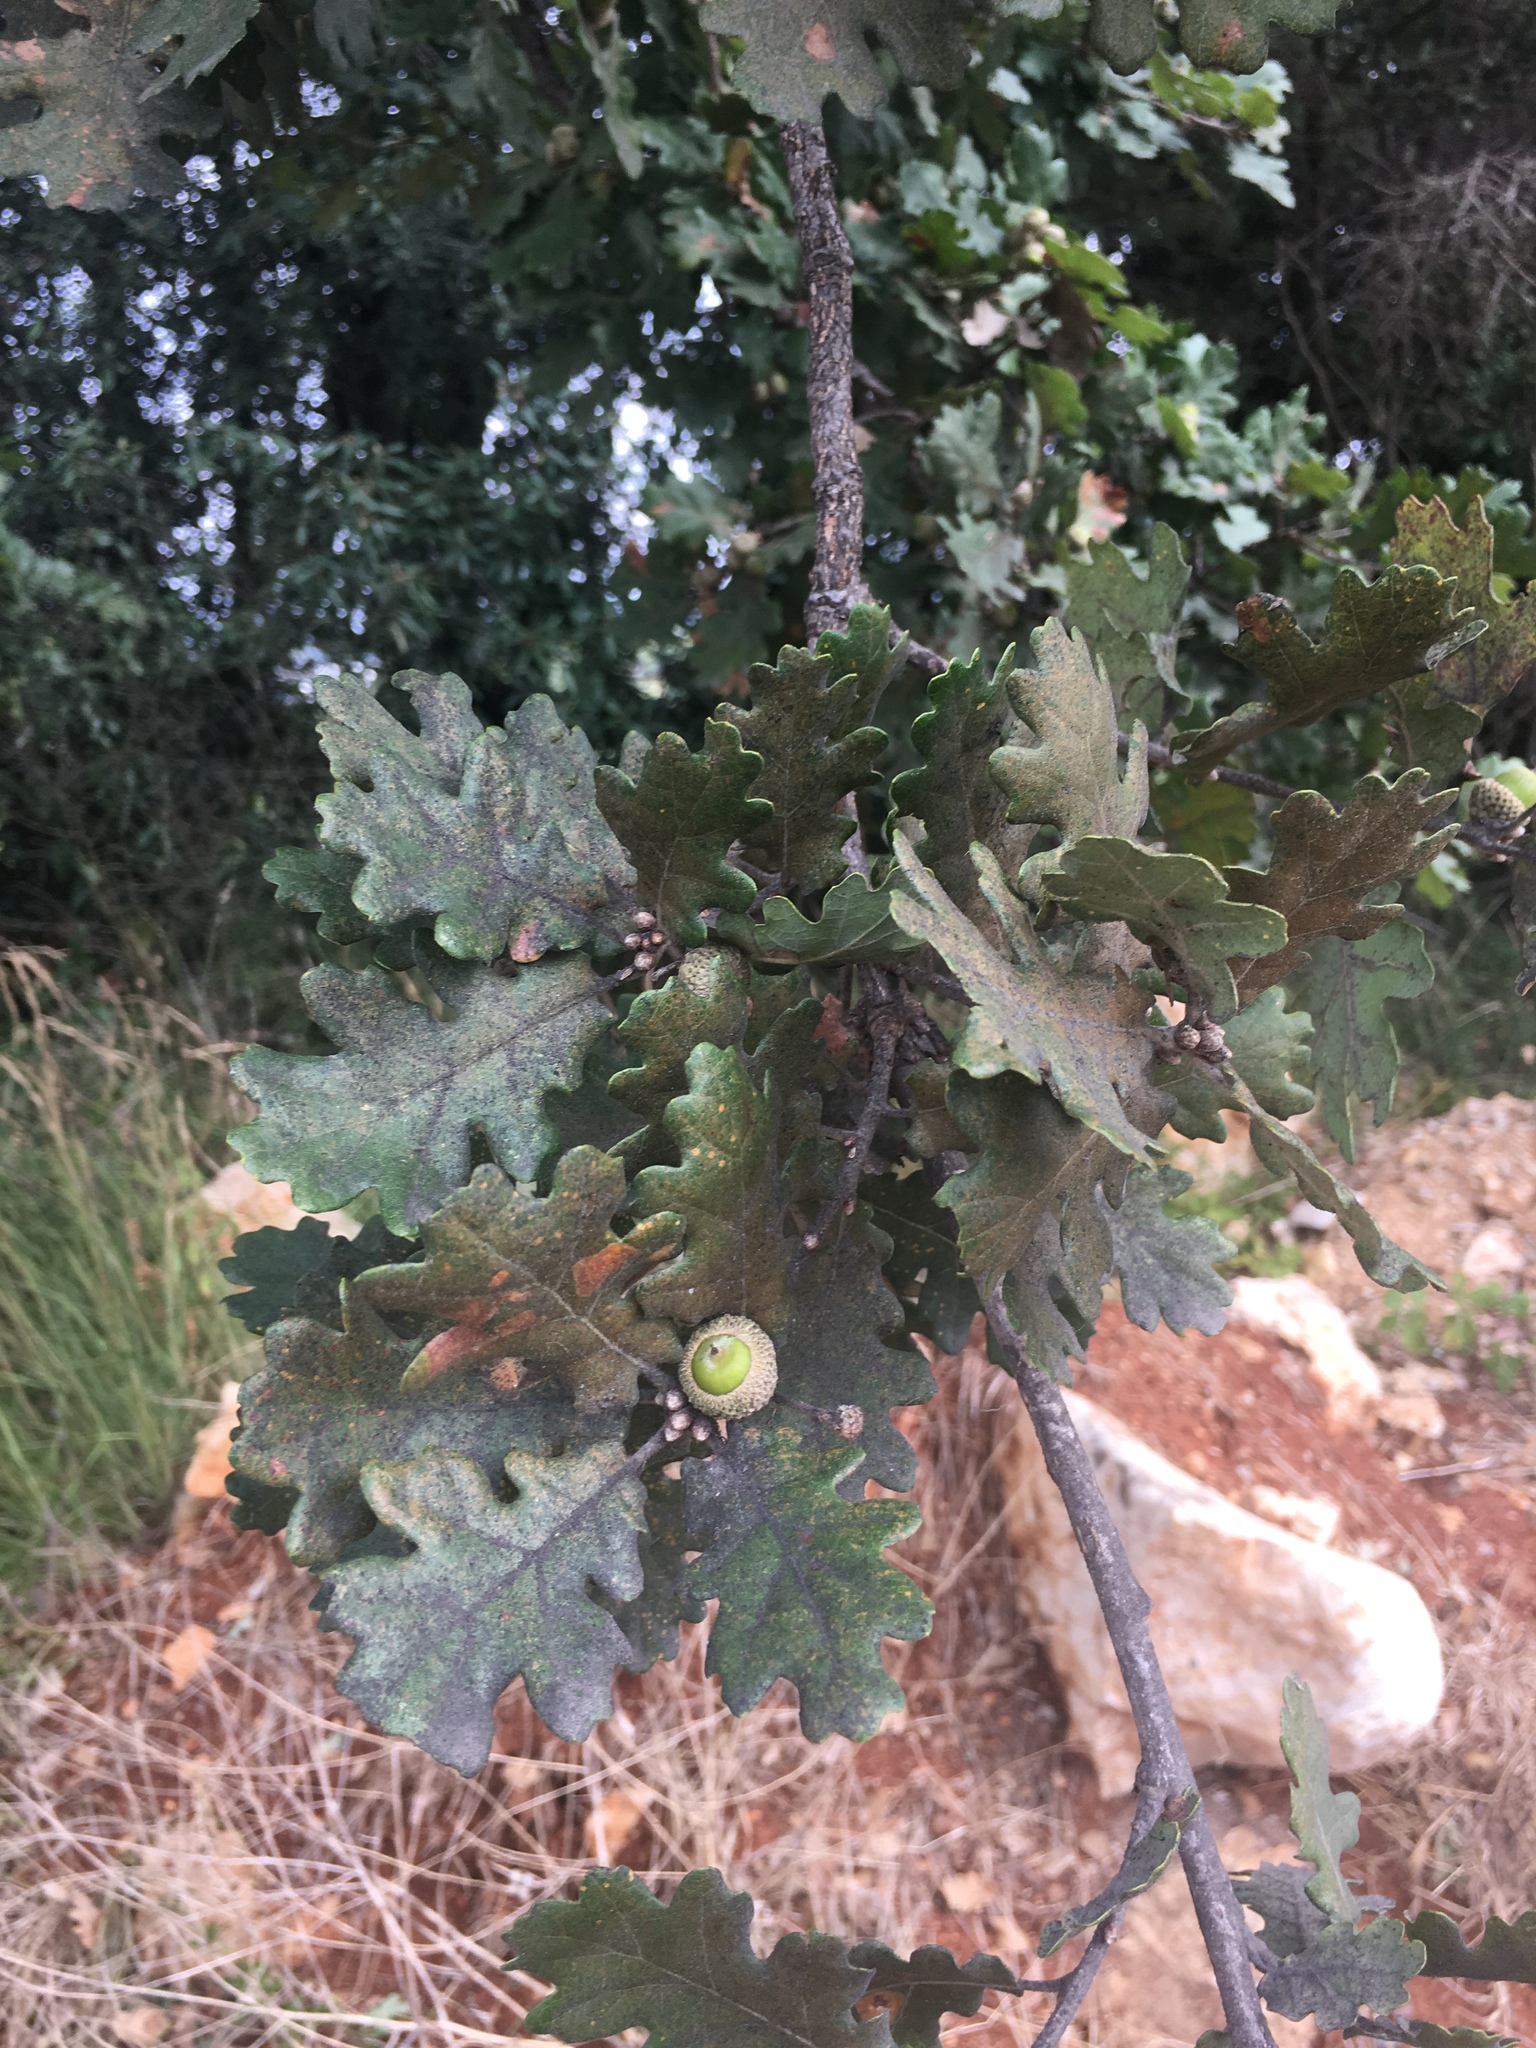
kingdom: Plantae
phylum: Tracheophyta
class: Magnoliopsida
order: Fagales
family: Fagaceae
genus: Quercus
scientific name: Quercus robur
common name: Pedunculate oak
